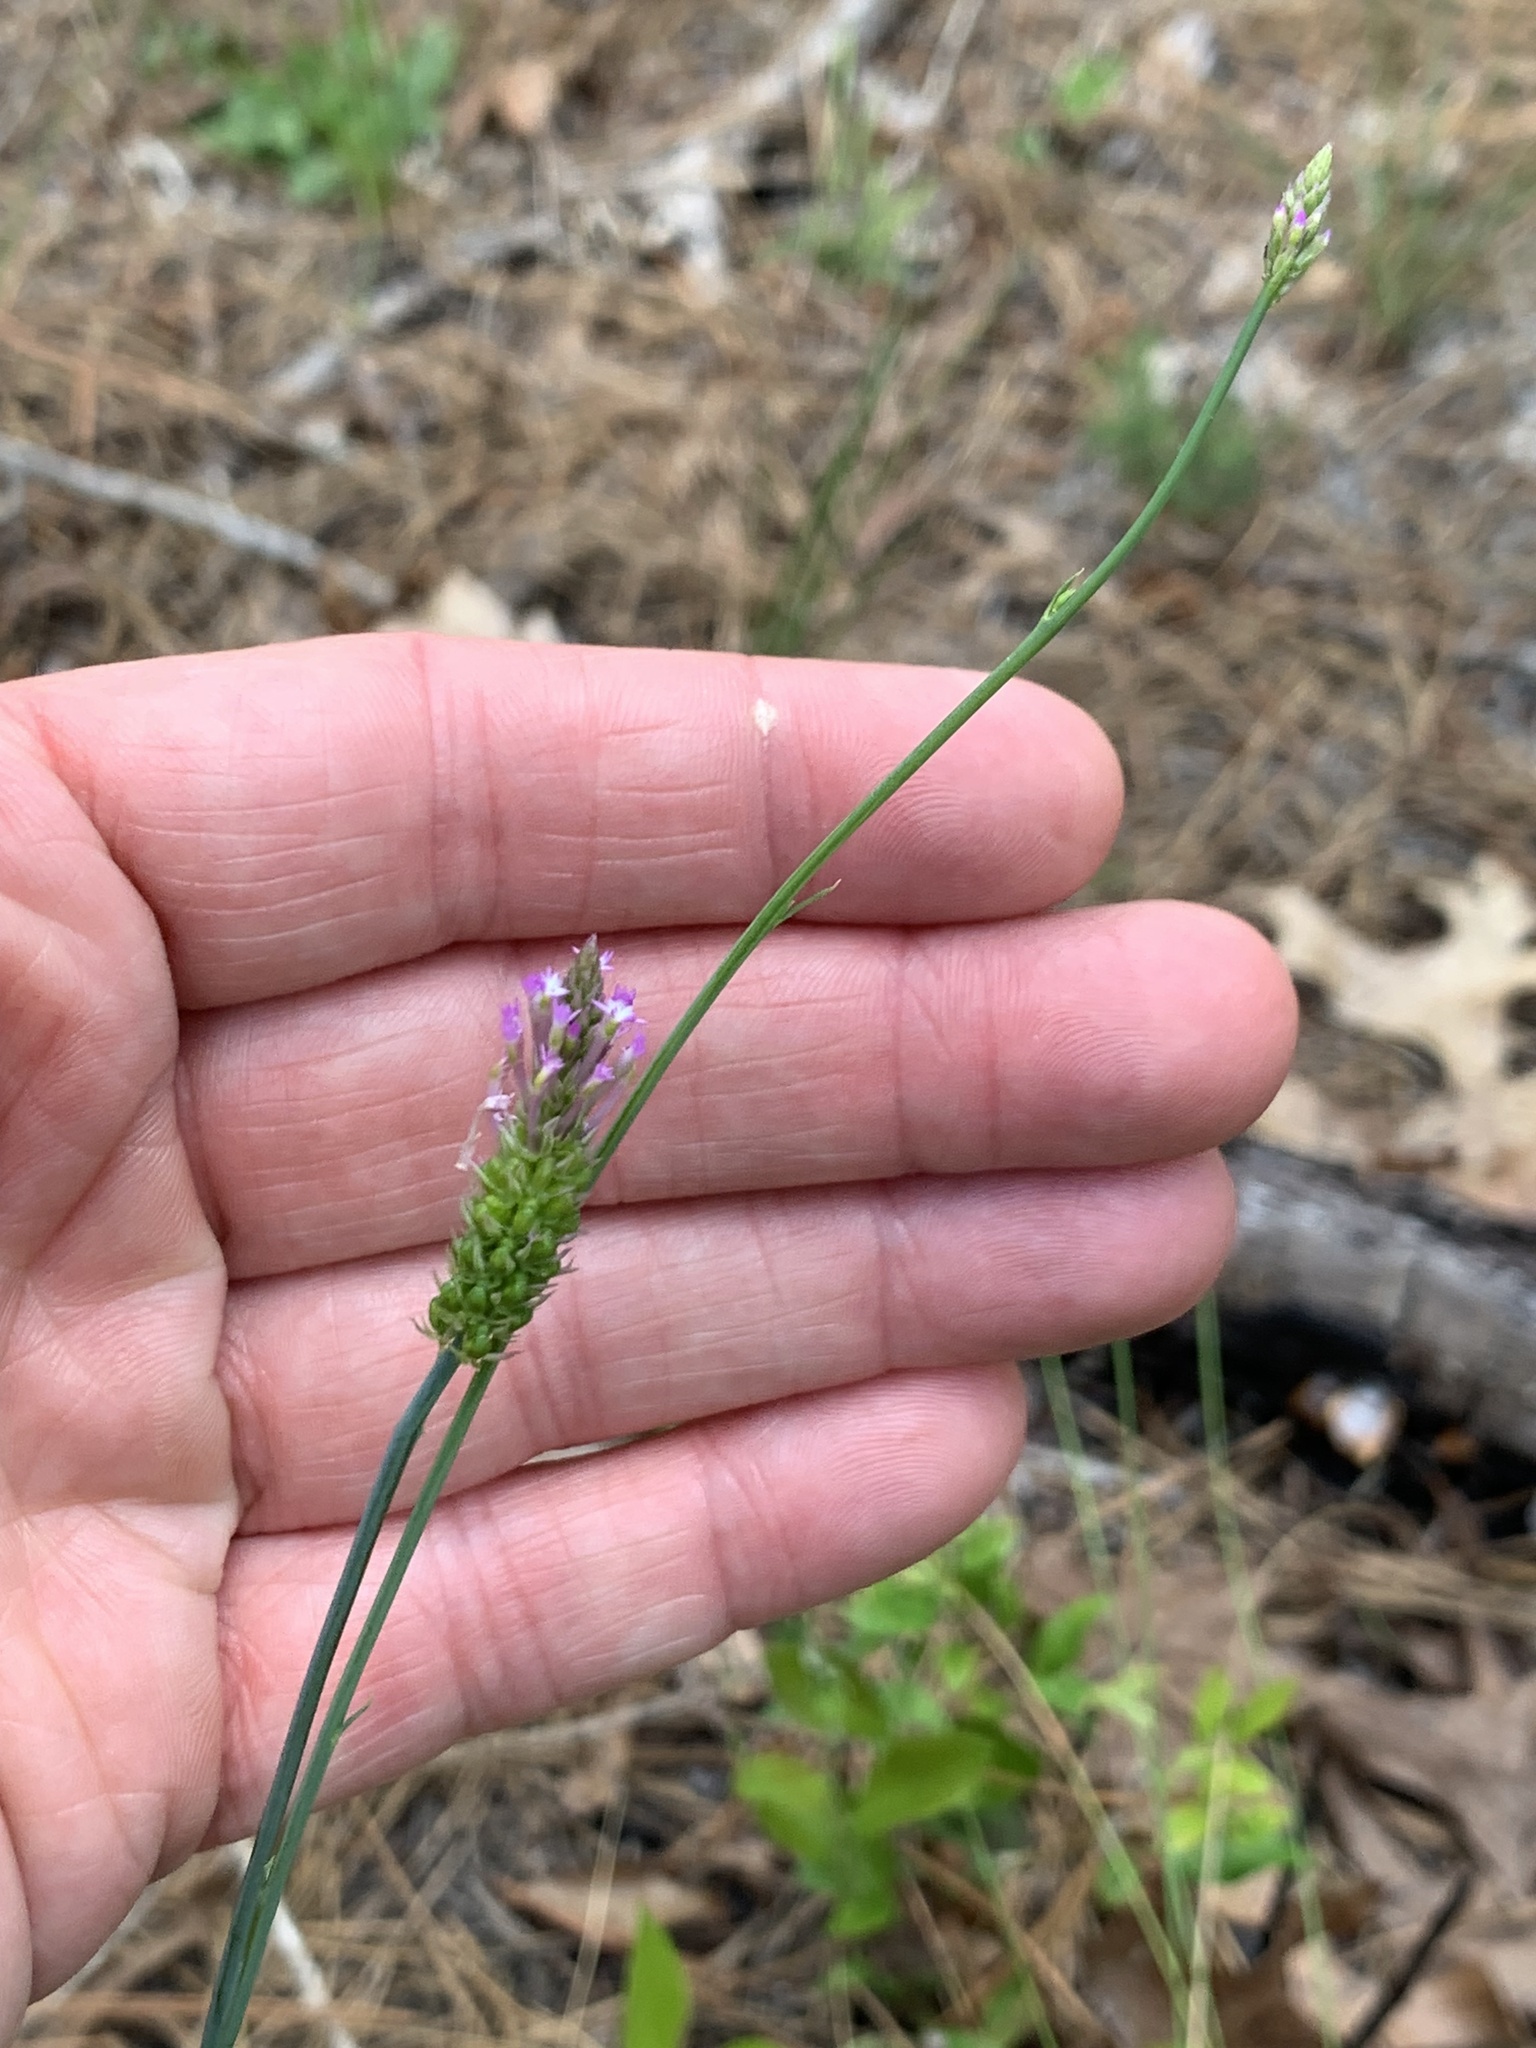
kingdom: Plantae
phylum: Tracheophyta
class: Magnoliopsida
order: Fabales
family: Polygalaceae
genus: Polygala
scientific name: Polygala incarnata
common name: Pink milkwort
